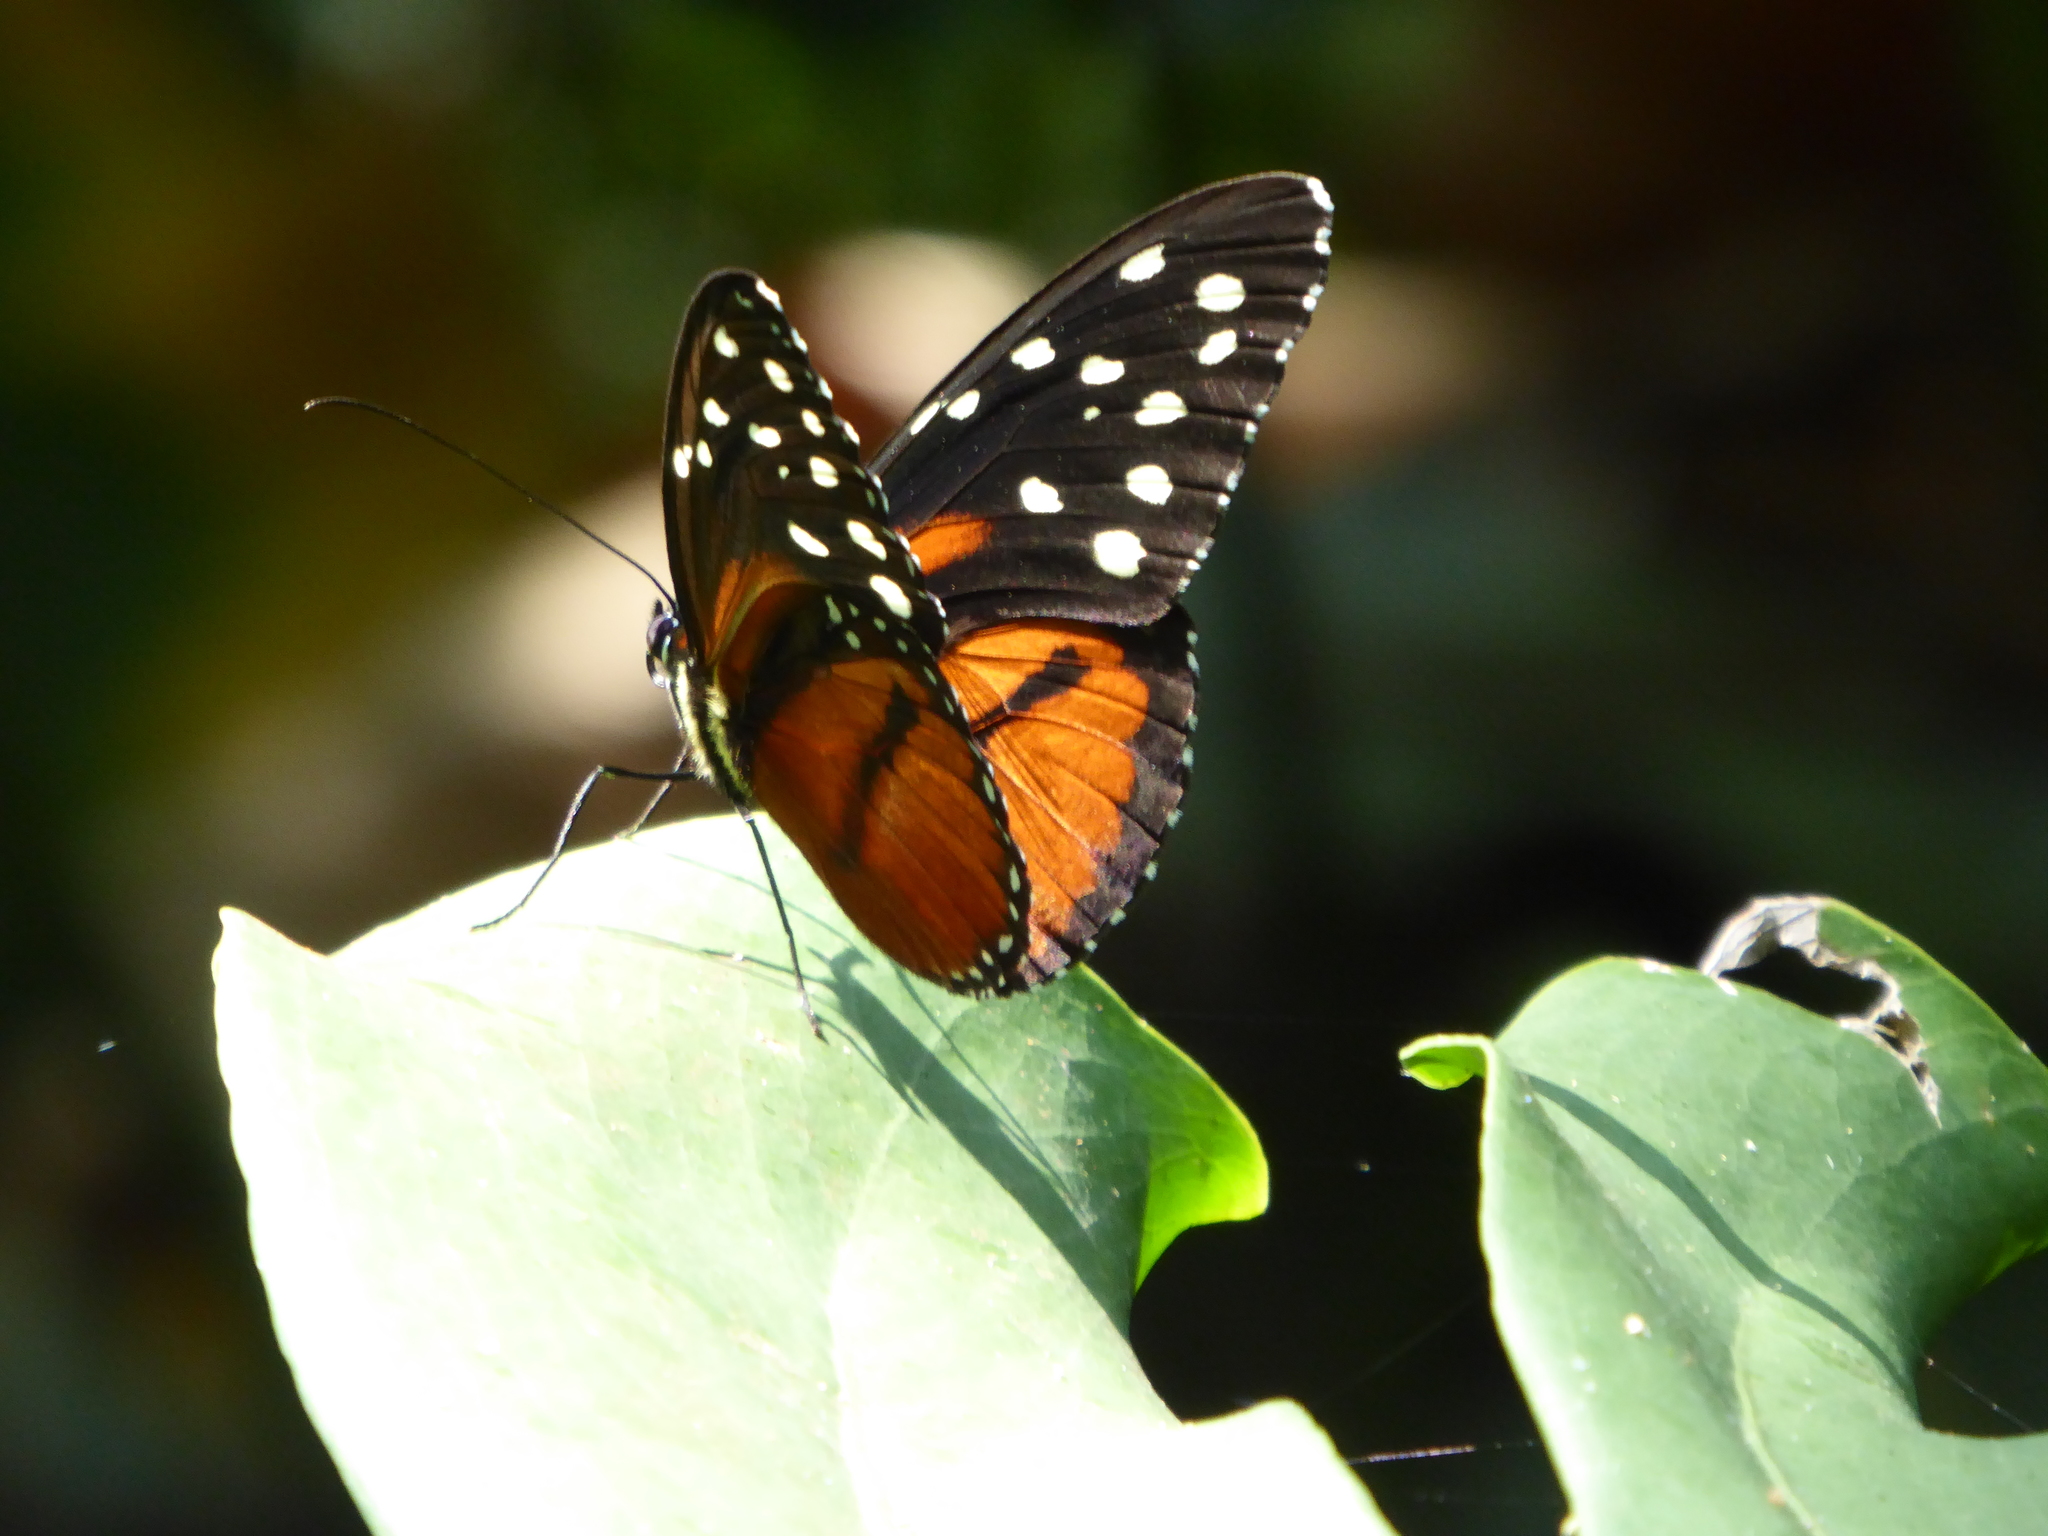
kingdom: Animalia
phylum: Arthropoda
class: Insecta
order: Lepidoptera
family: Nymphalidae
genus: Tithorea
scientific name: Tithorea tarricina
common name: Cream-spotted tigerwing
